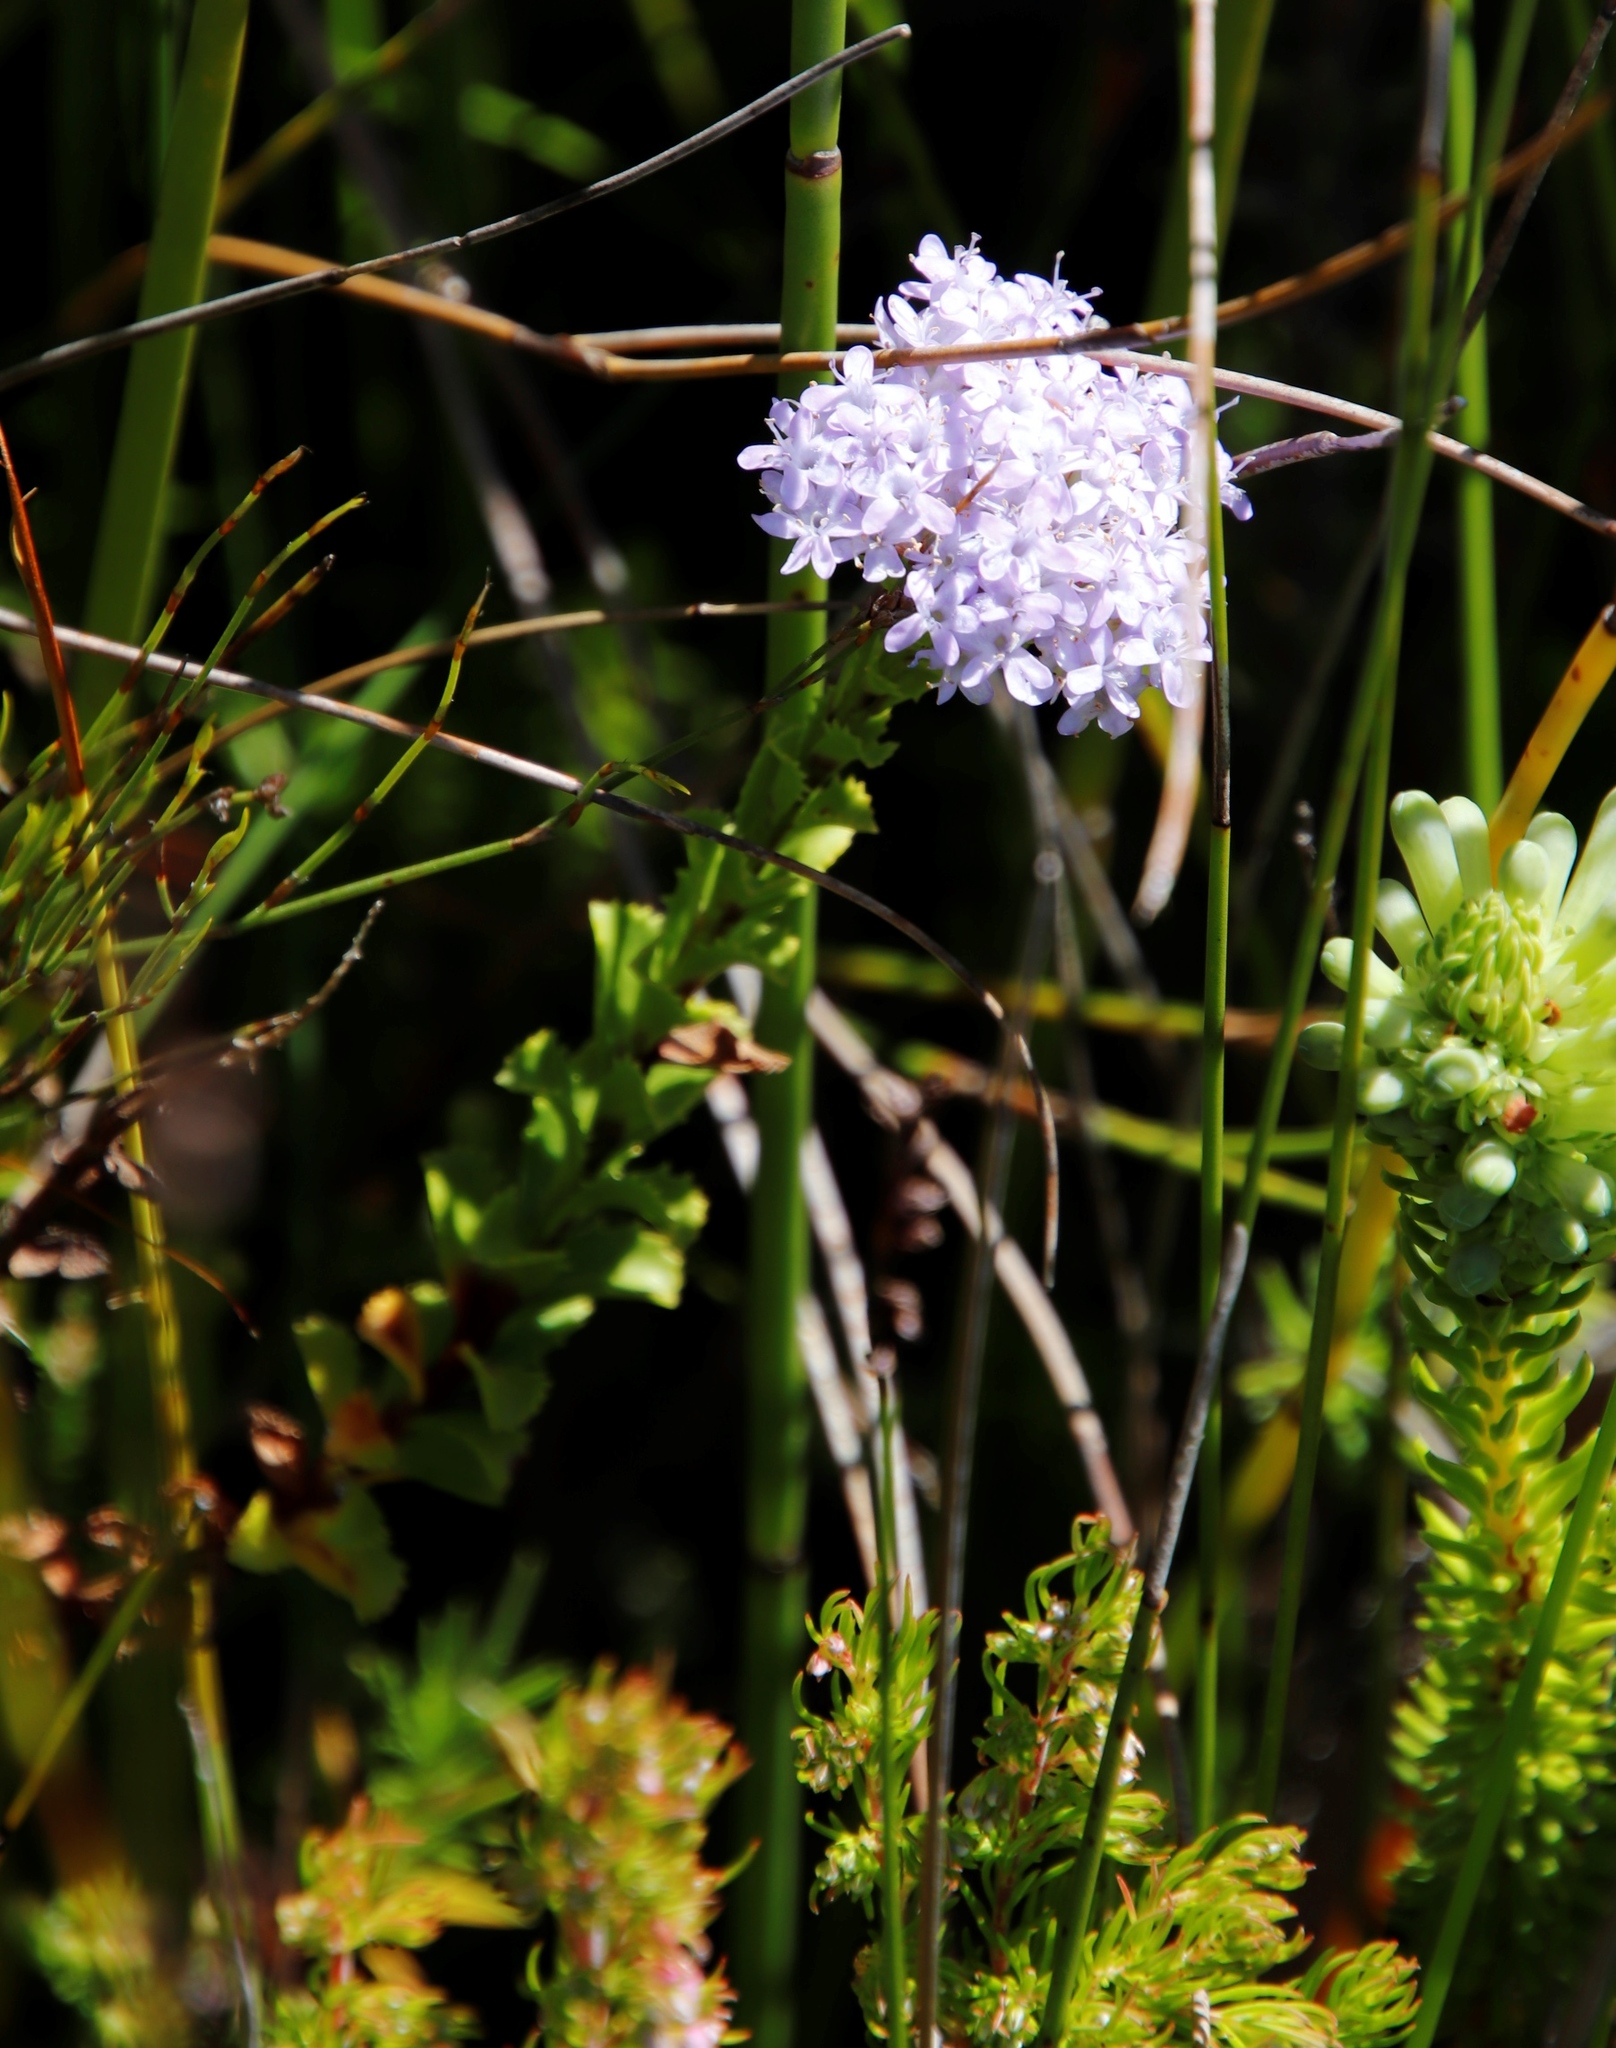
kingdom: Plantae
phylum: Tracheophyta
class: Magnoliopsida
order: Lamiales
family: Scrophulariaceae
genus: Pseudoselago
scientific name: Pseudoselago serrata
